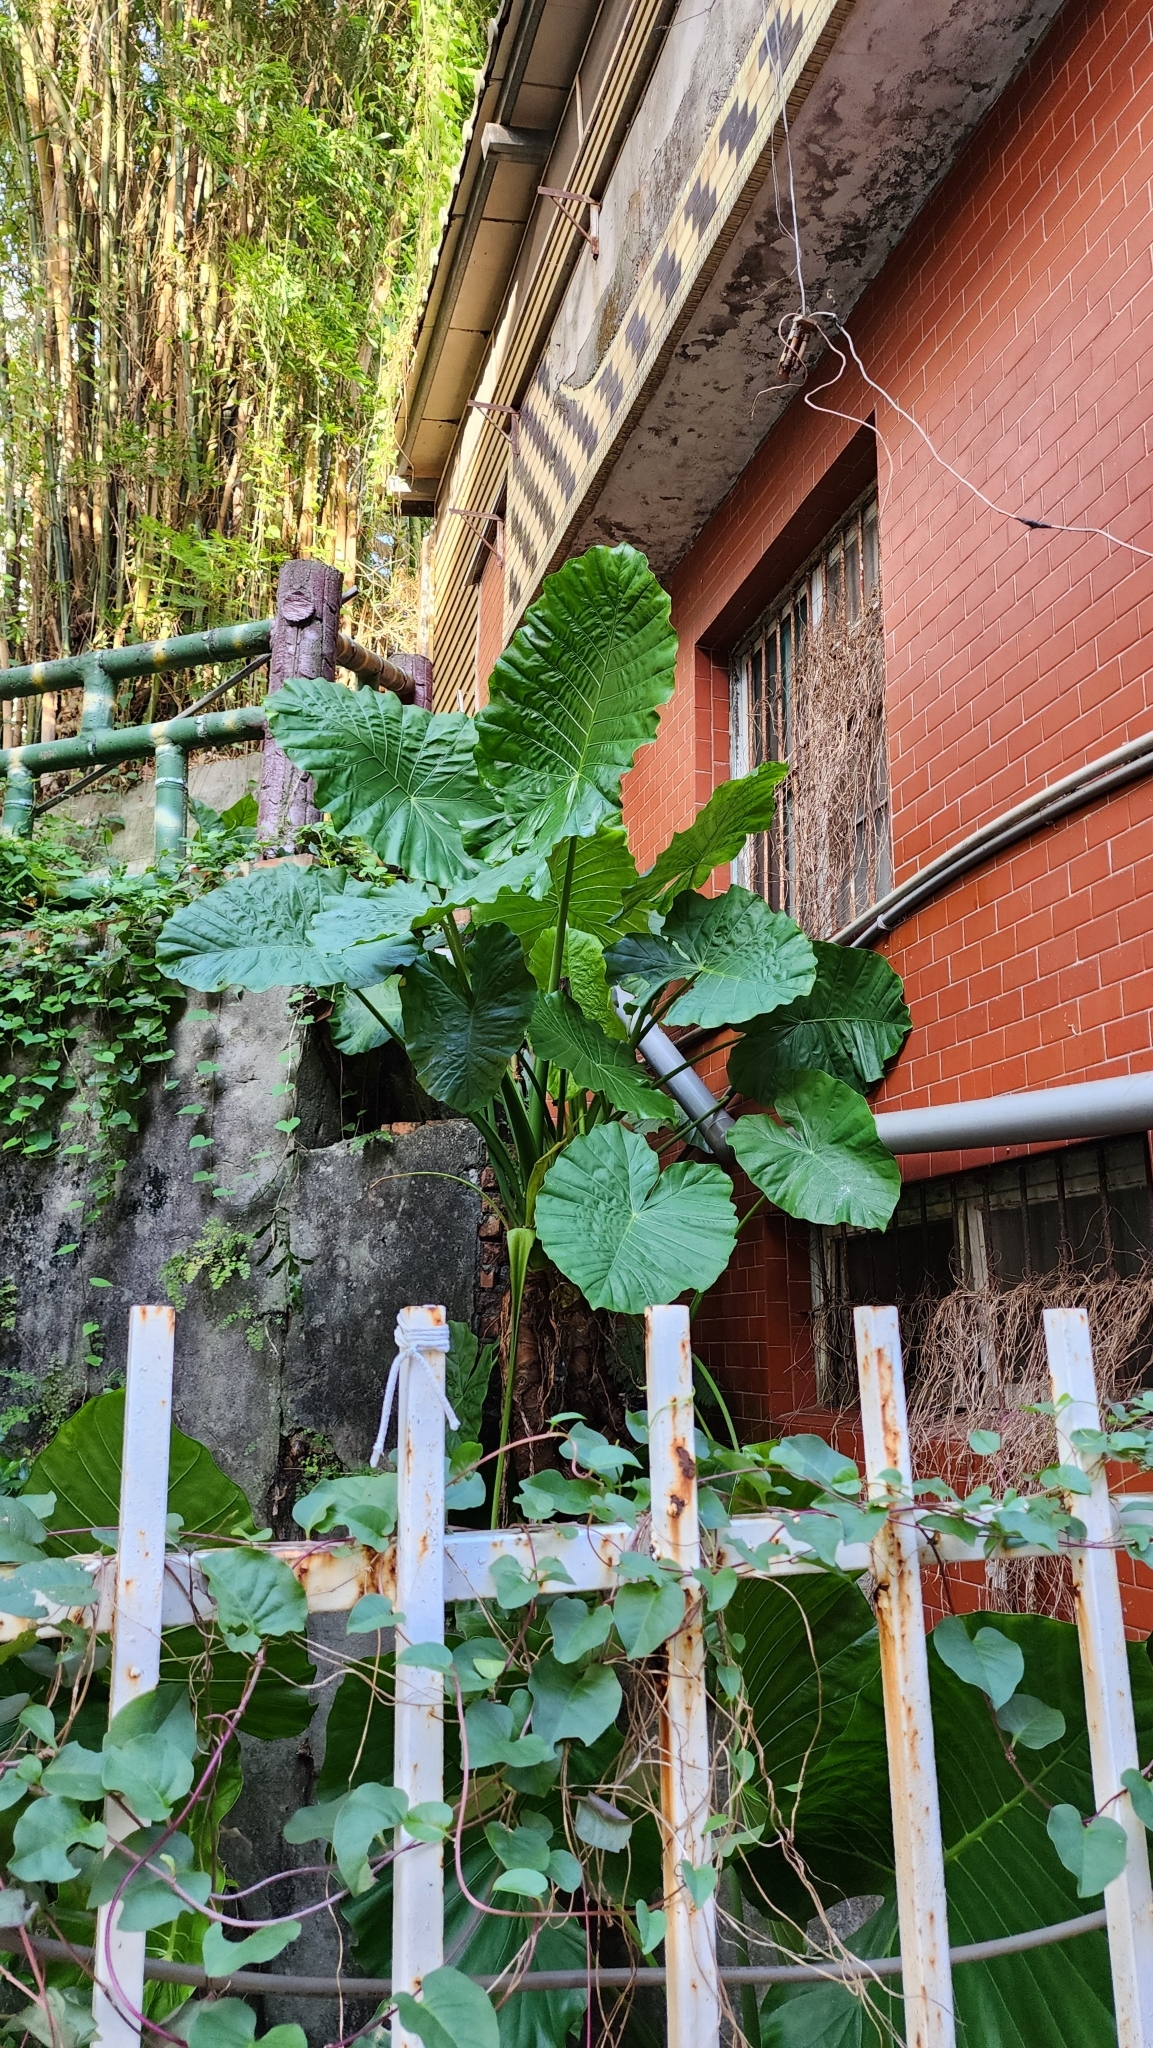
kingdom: Plantae
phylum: Tracheophyta
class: Liliopsida
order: Alismatales
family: Araceae
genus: Alocasia
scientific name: Alocasia odora
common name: Asian taro
